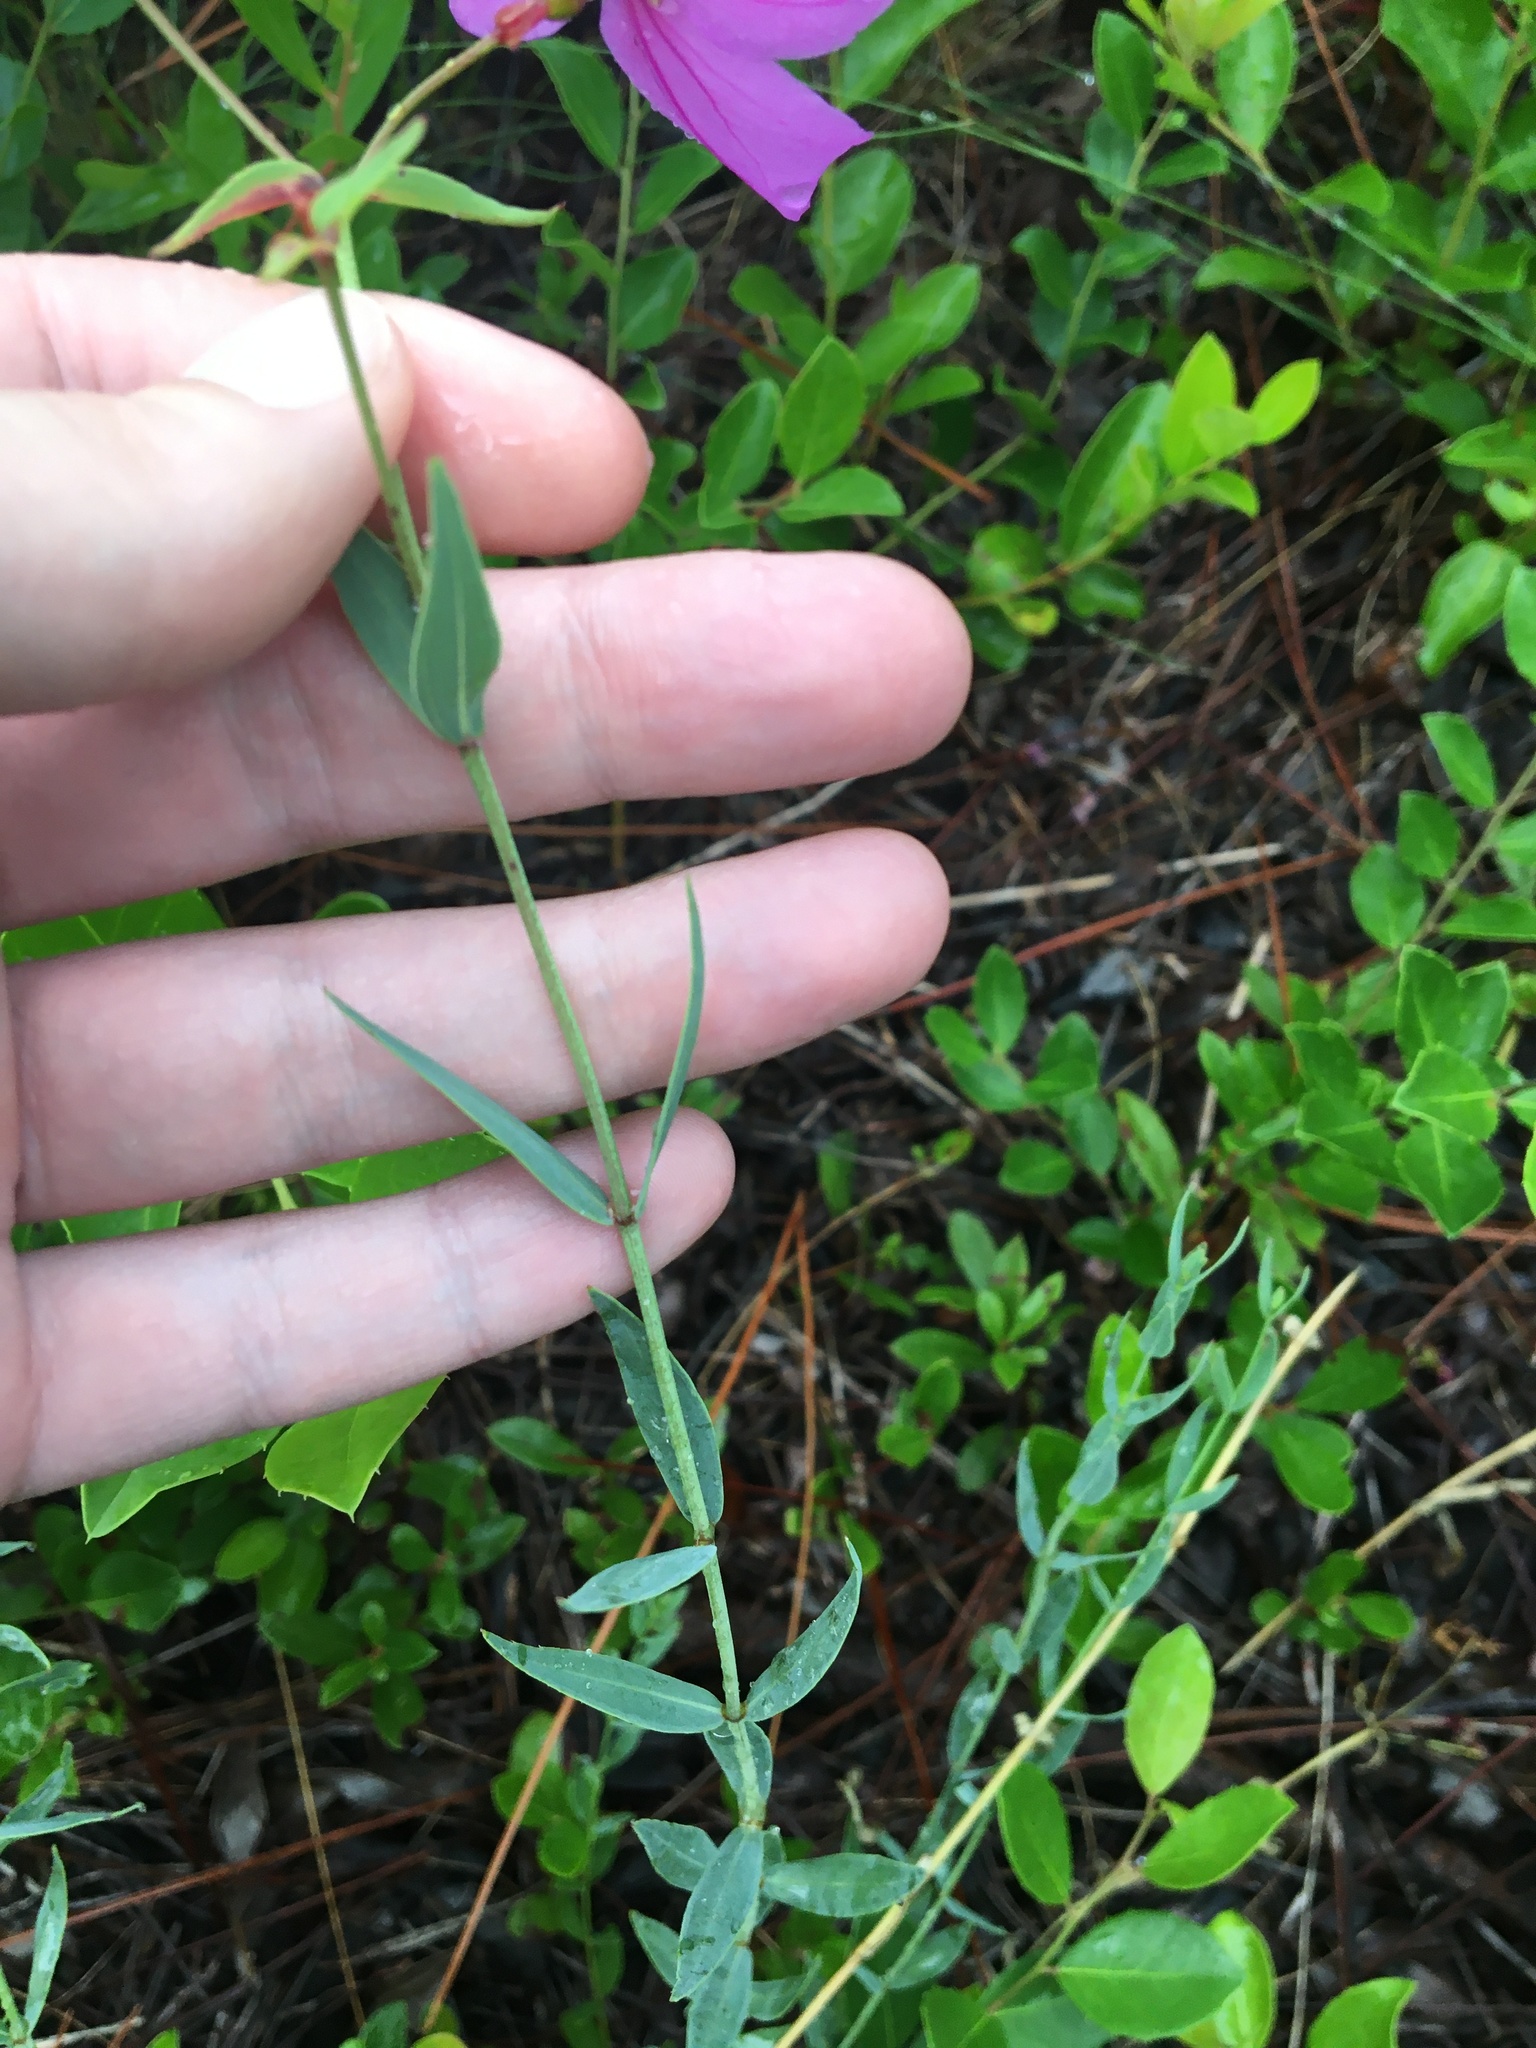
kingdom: Plantae
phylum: Tracheophyta
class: Magnoliopsida
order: Myrtales
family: Melastomataceae
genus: Rhexia
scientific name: Rhexia alifanus
